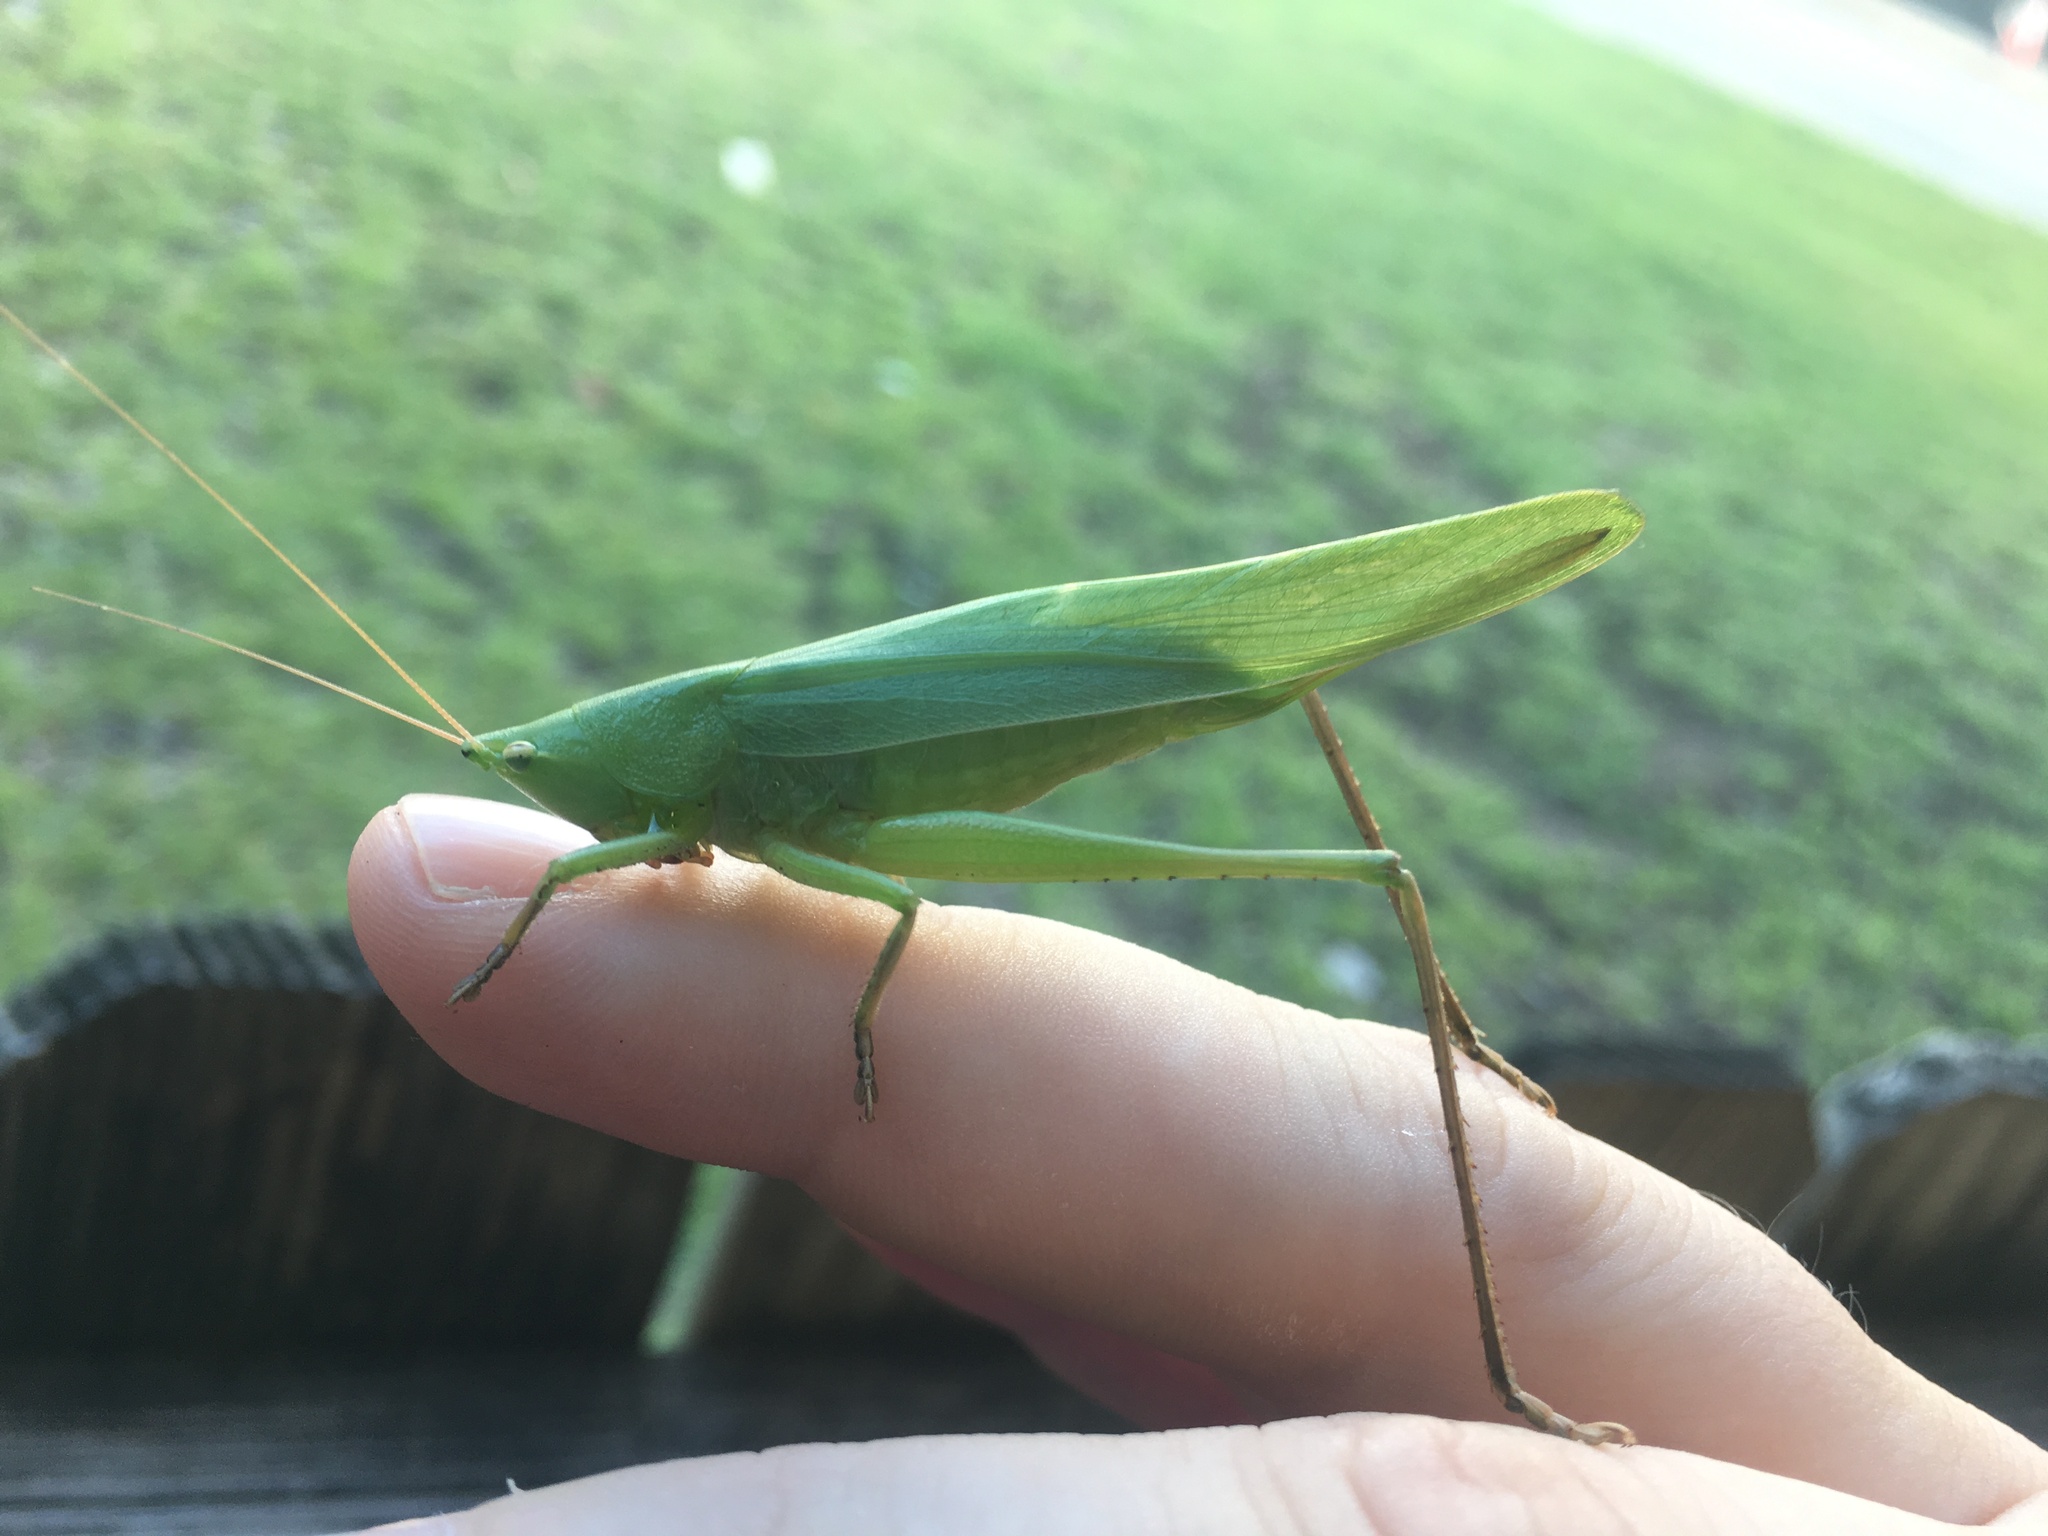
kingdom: Animalia
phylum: Arthropoda
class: Insecta
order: Orthoptera
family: Tettigoniidae
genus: Neoconocephalus
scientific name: Neoconocephalus triops
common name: Broad-tipped conehead
